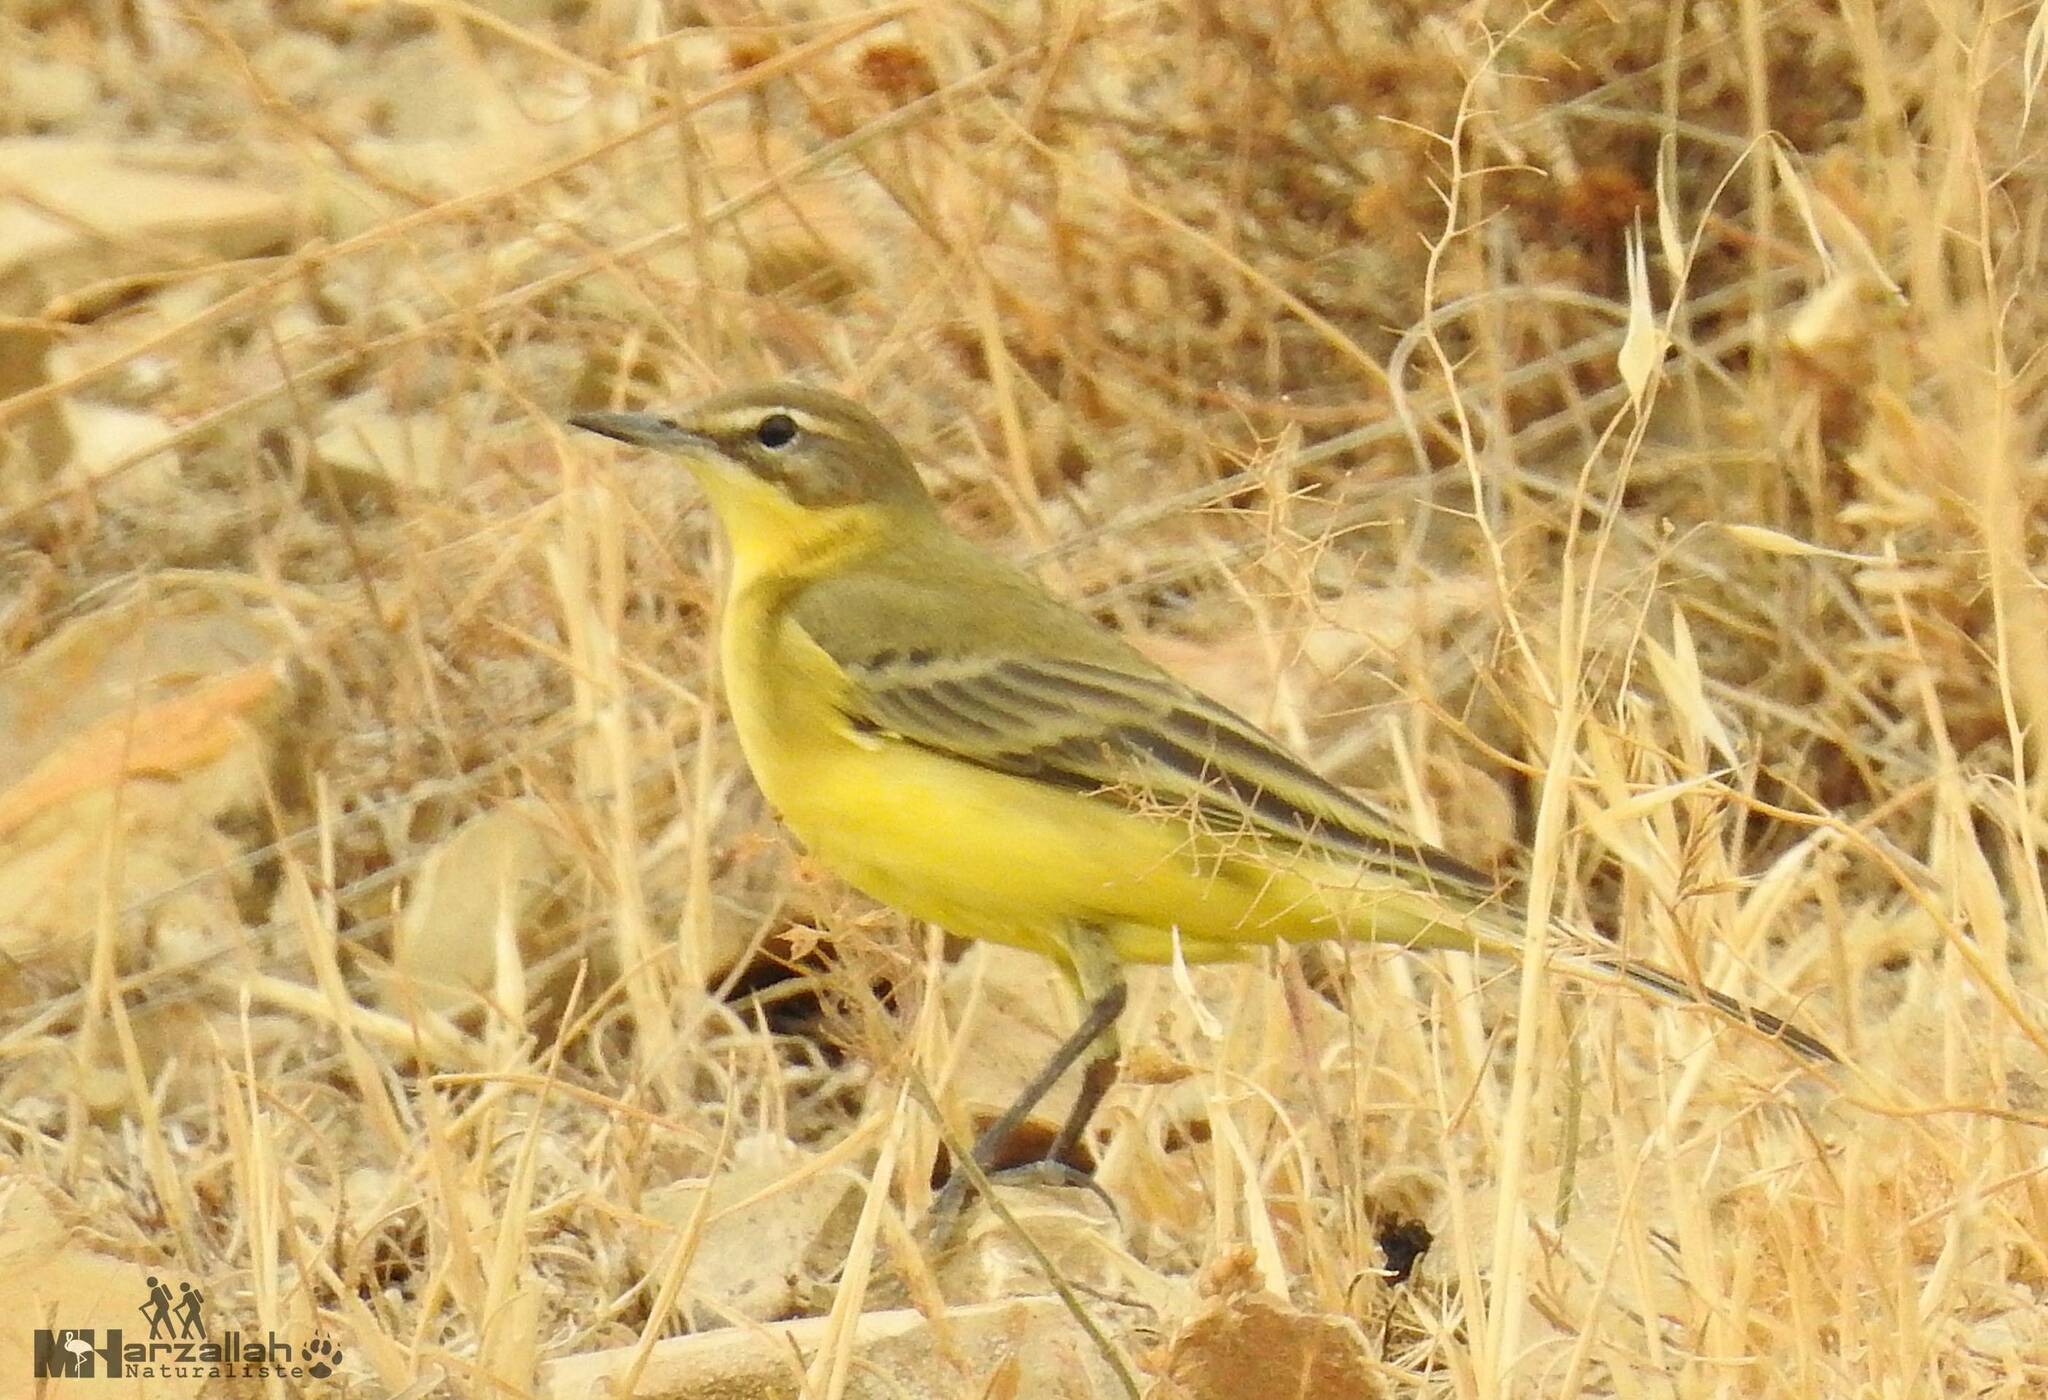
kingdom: Animalia
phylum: Chordata
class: Aves
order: Passeriformes
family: Motacillidae
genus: Motacilla
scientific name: Motacilla flava
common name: Western yellow wagtail
